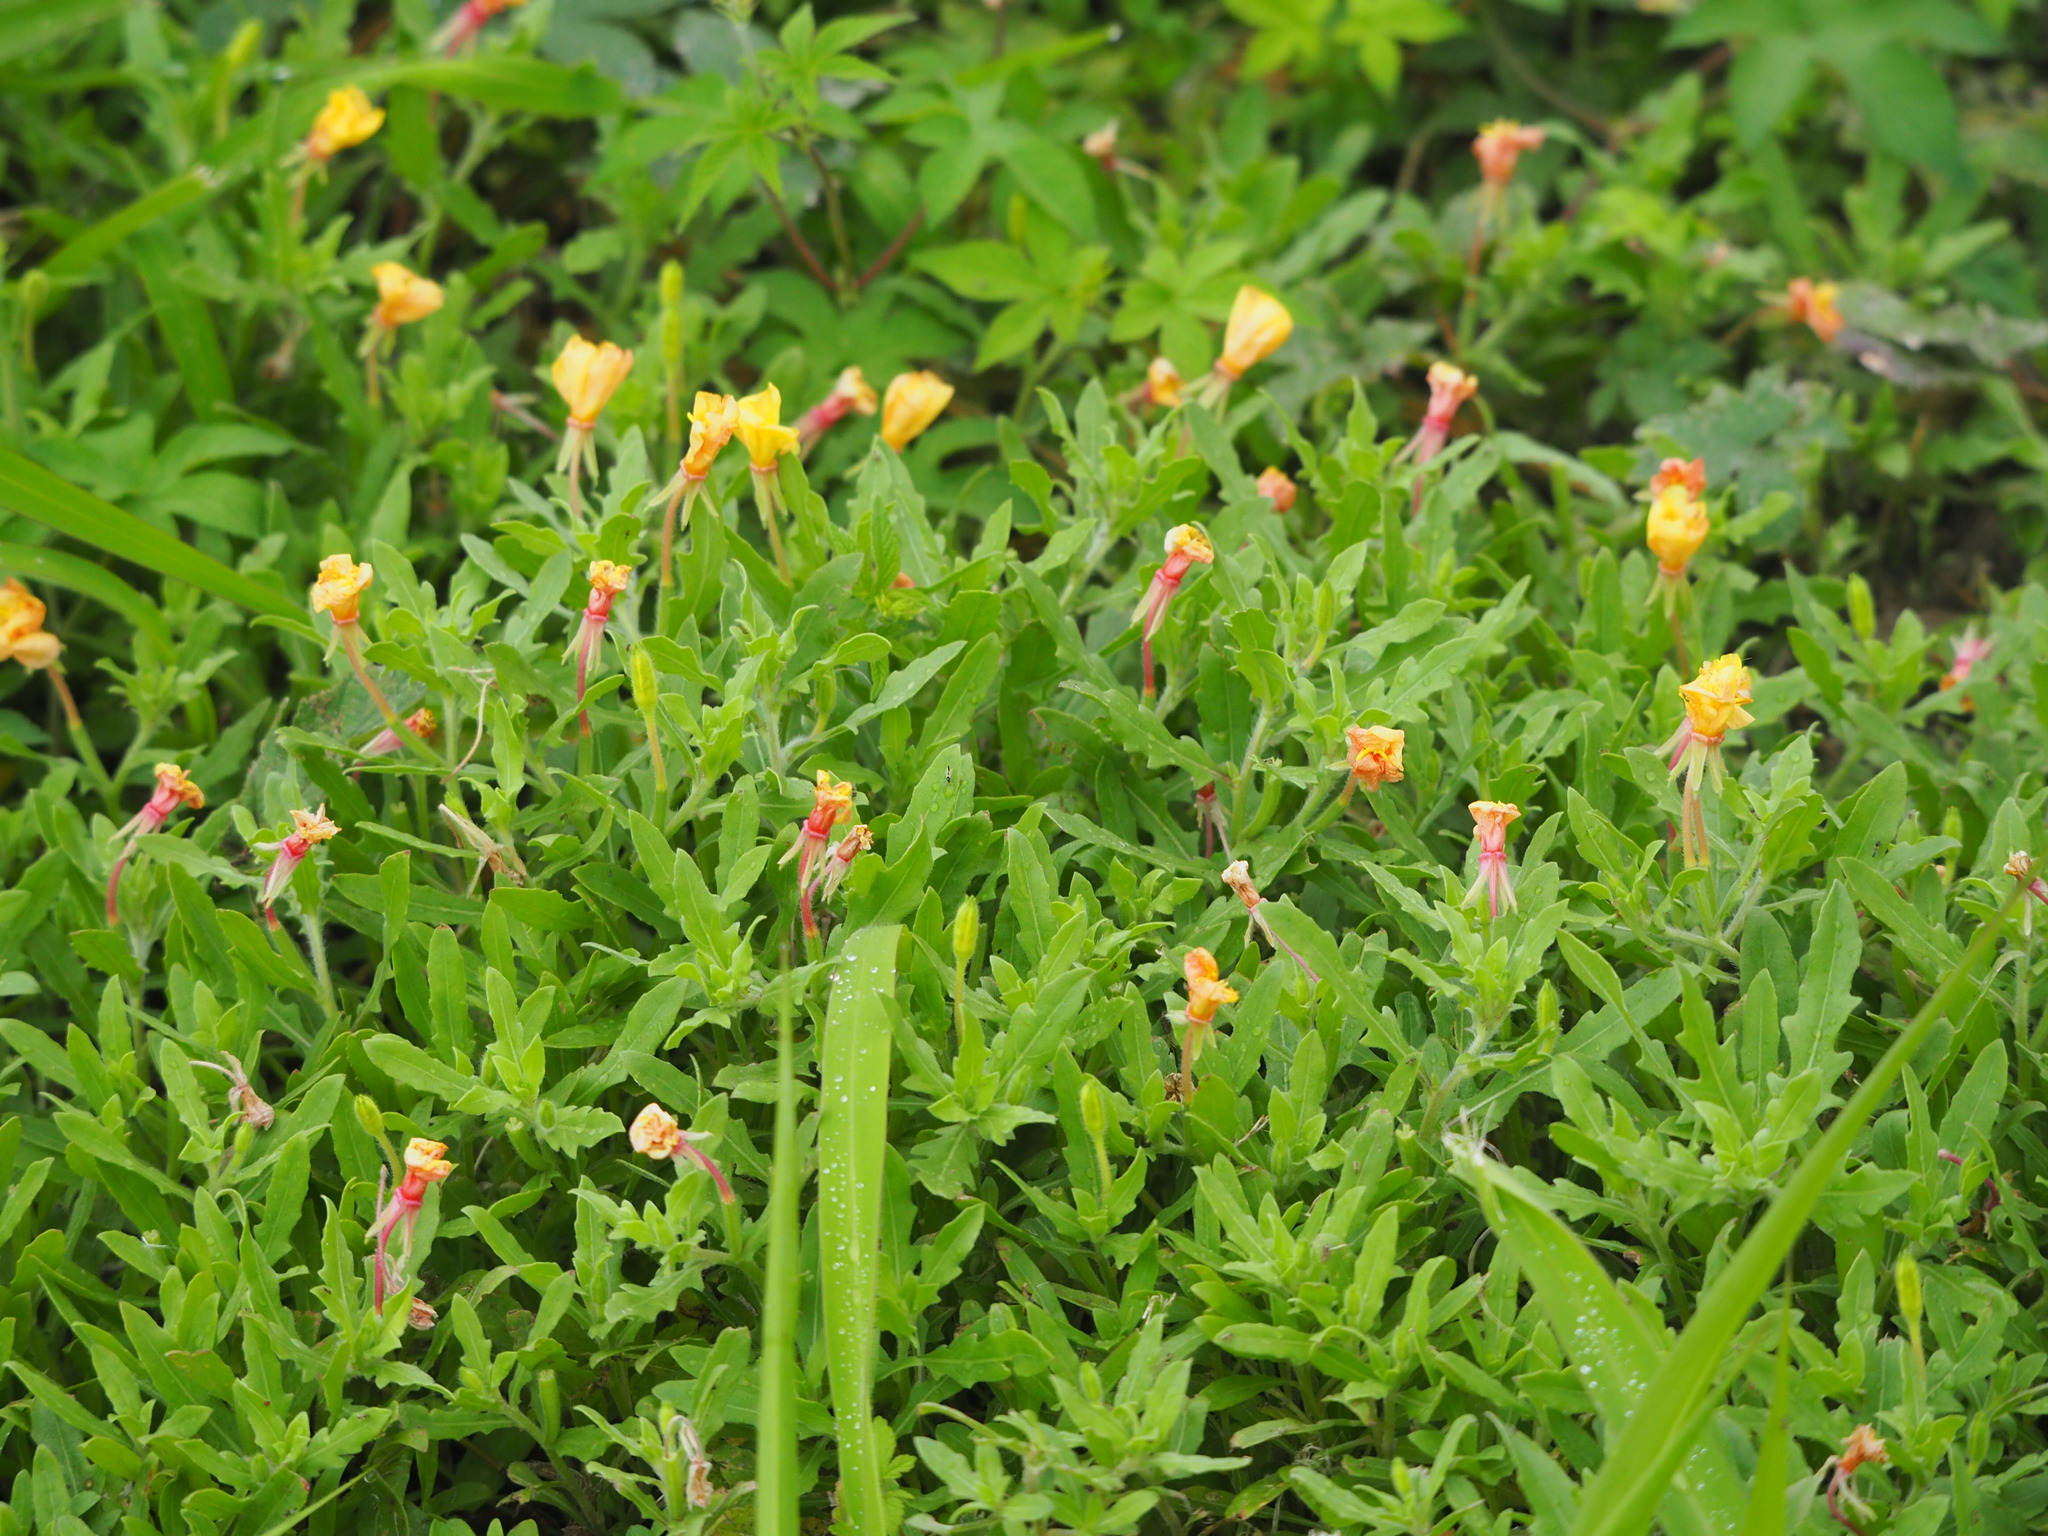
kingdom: Plantae
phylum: Tracheophyta
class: Magnoliopsida
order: Myrtales
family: Onagraceae
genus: Oenothera
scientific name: Oenothera laciniata
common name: Cut-leaved evening-primrose
